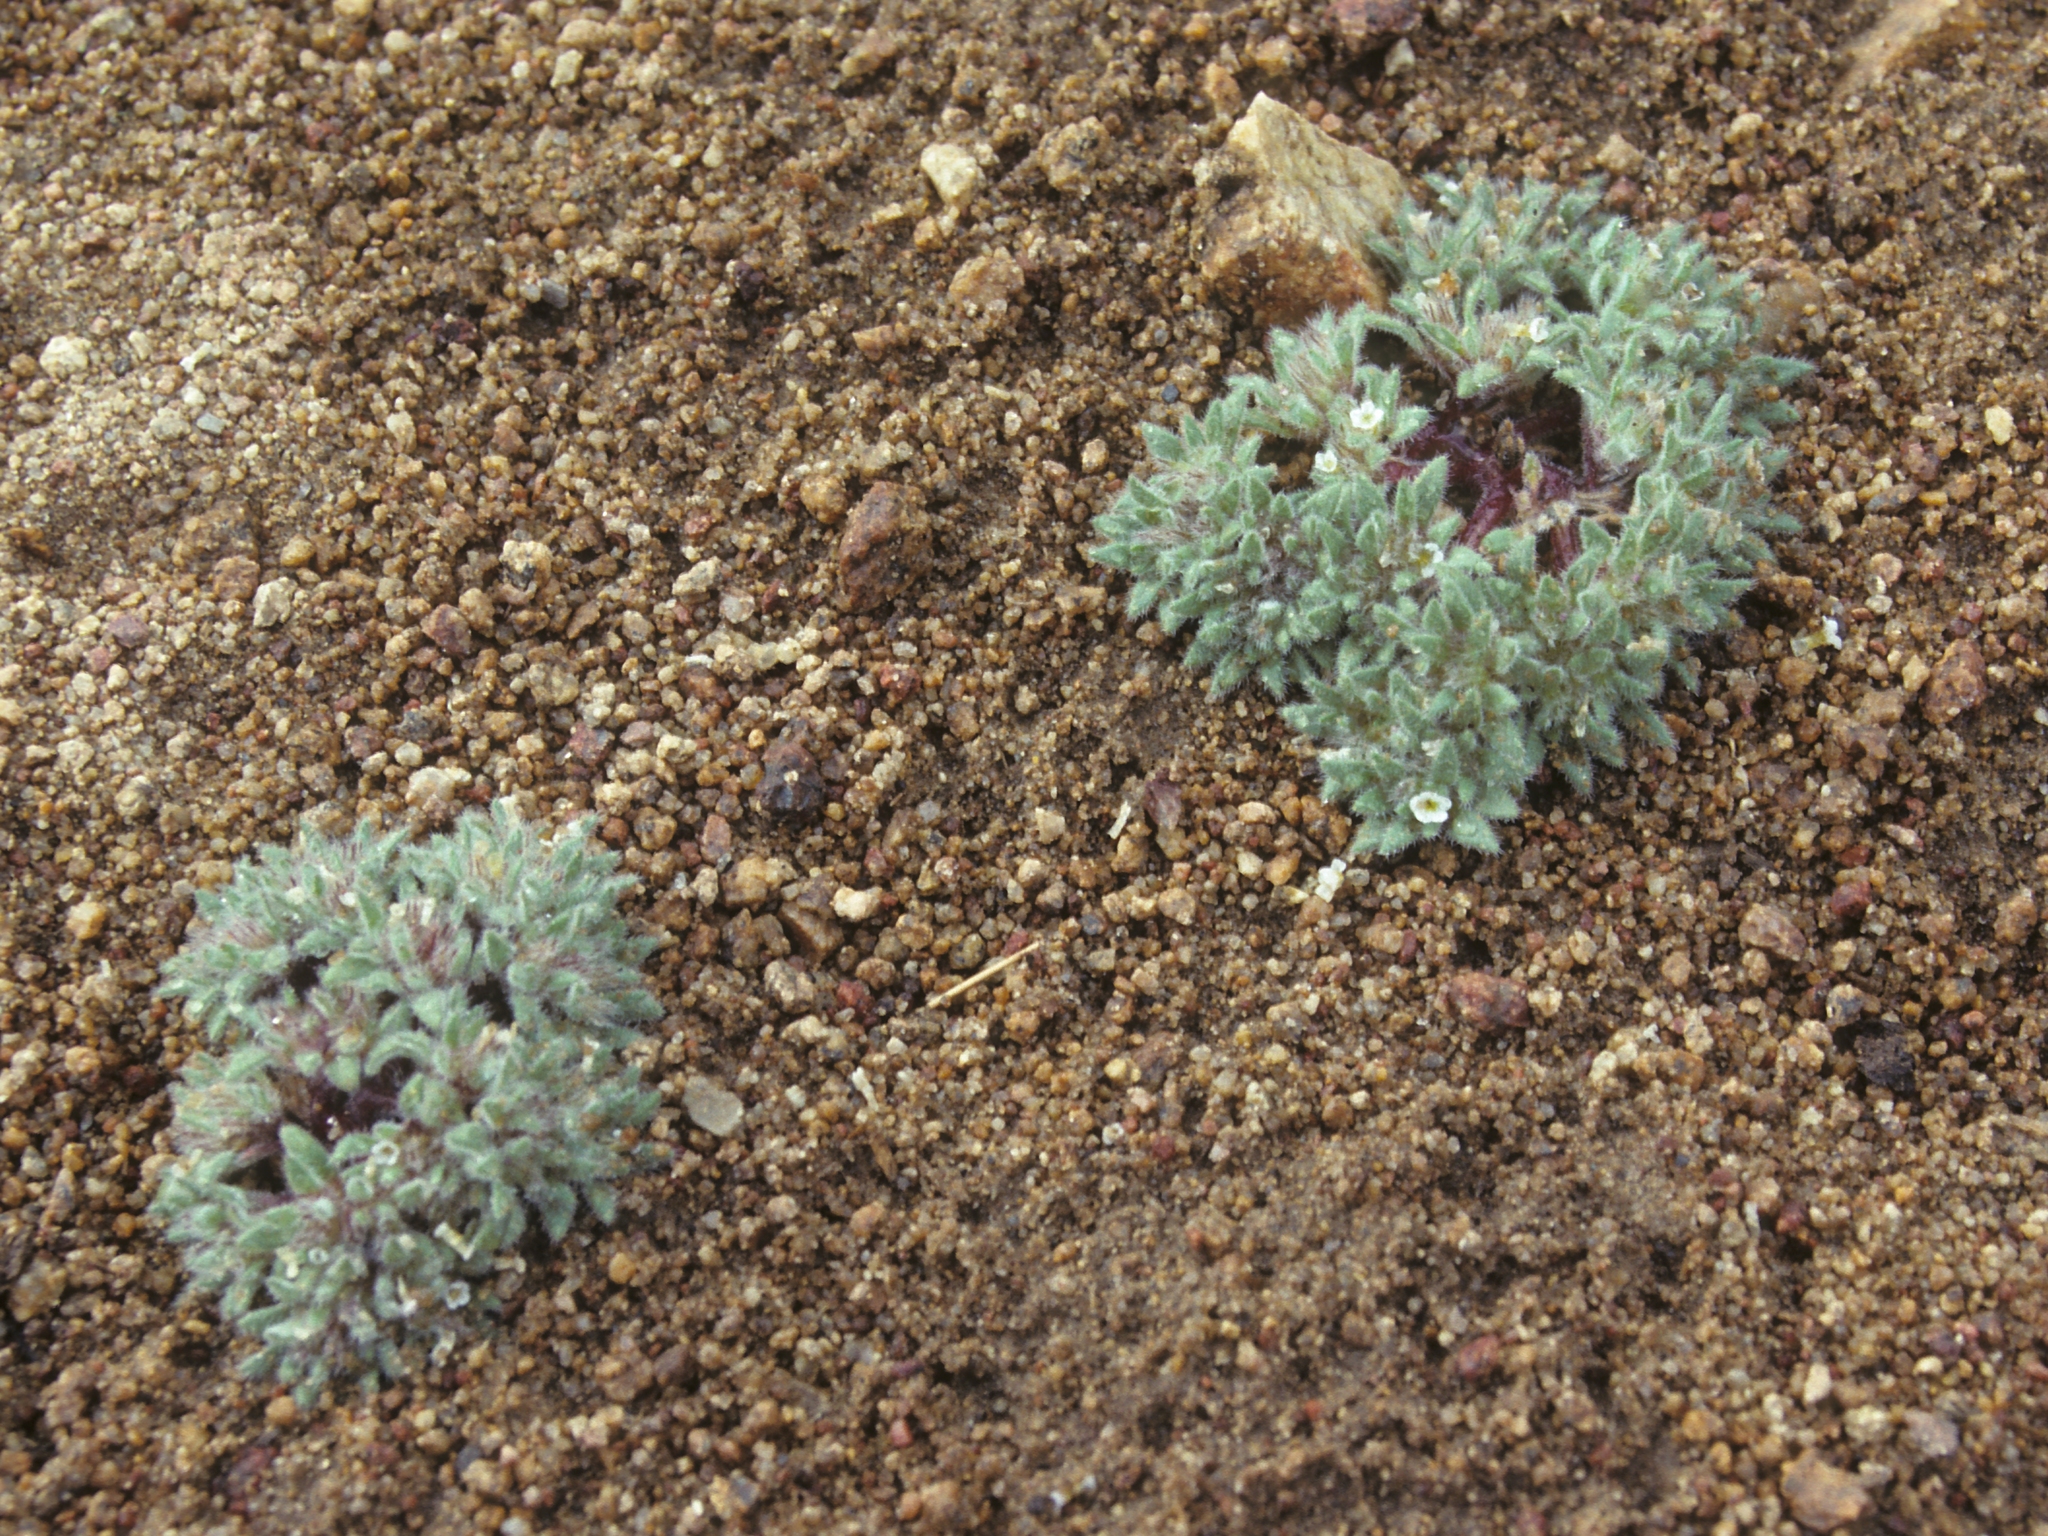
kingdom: Plantae
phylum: Tracheophyta
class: Magnoliopsida
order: Boraginales
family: Namaceae
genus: Nama
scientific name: Nama densa
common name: Leafy nama
